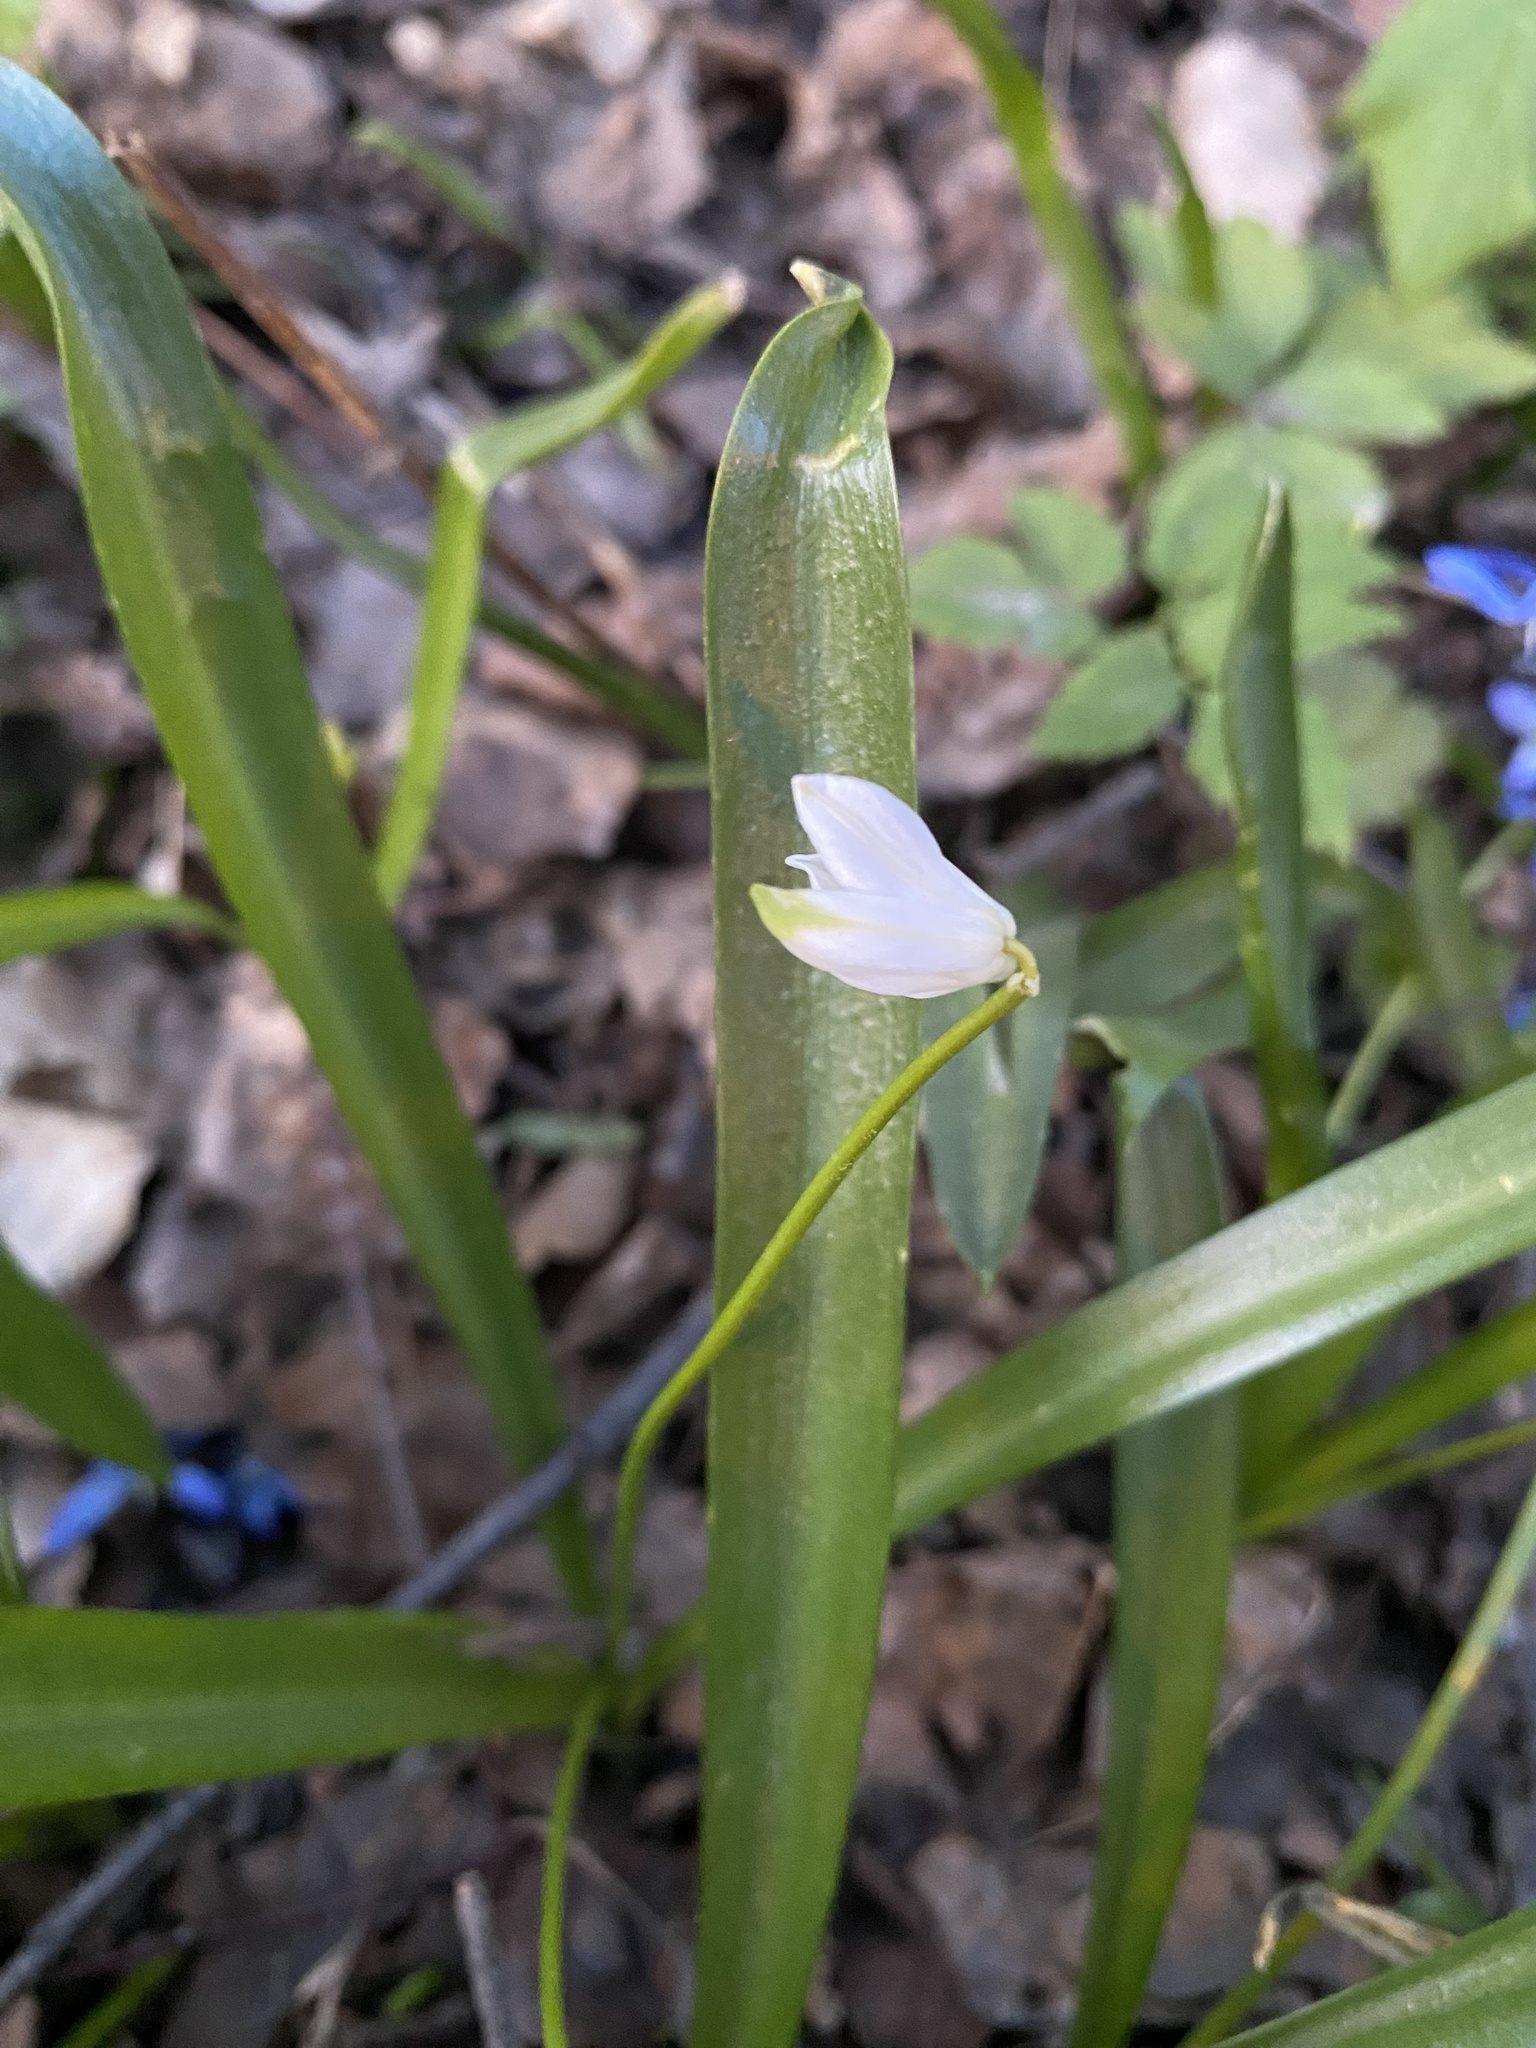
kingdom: Plantae
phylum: Tracheophyta
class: Liliopsida
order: Asparagales
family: Asparagaceae
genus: Scilla
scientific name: Scilla siberica
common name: Siberian squill
